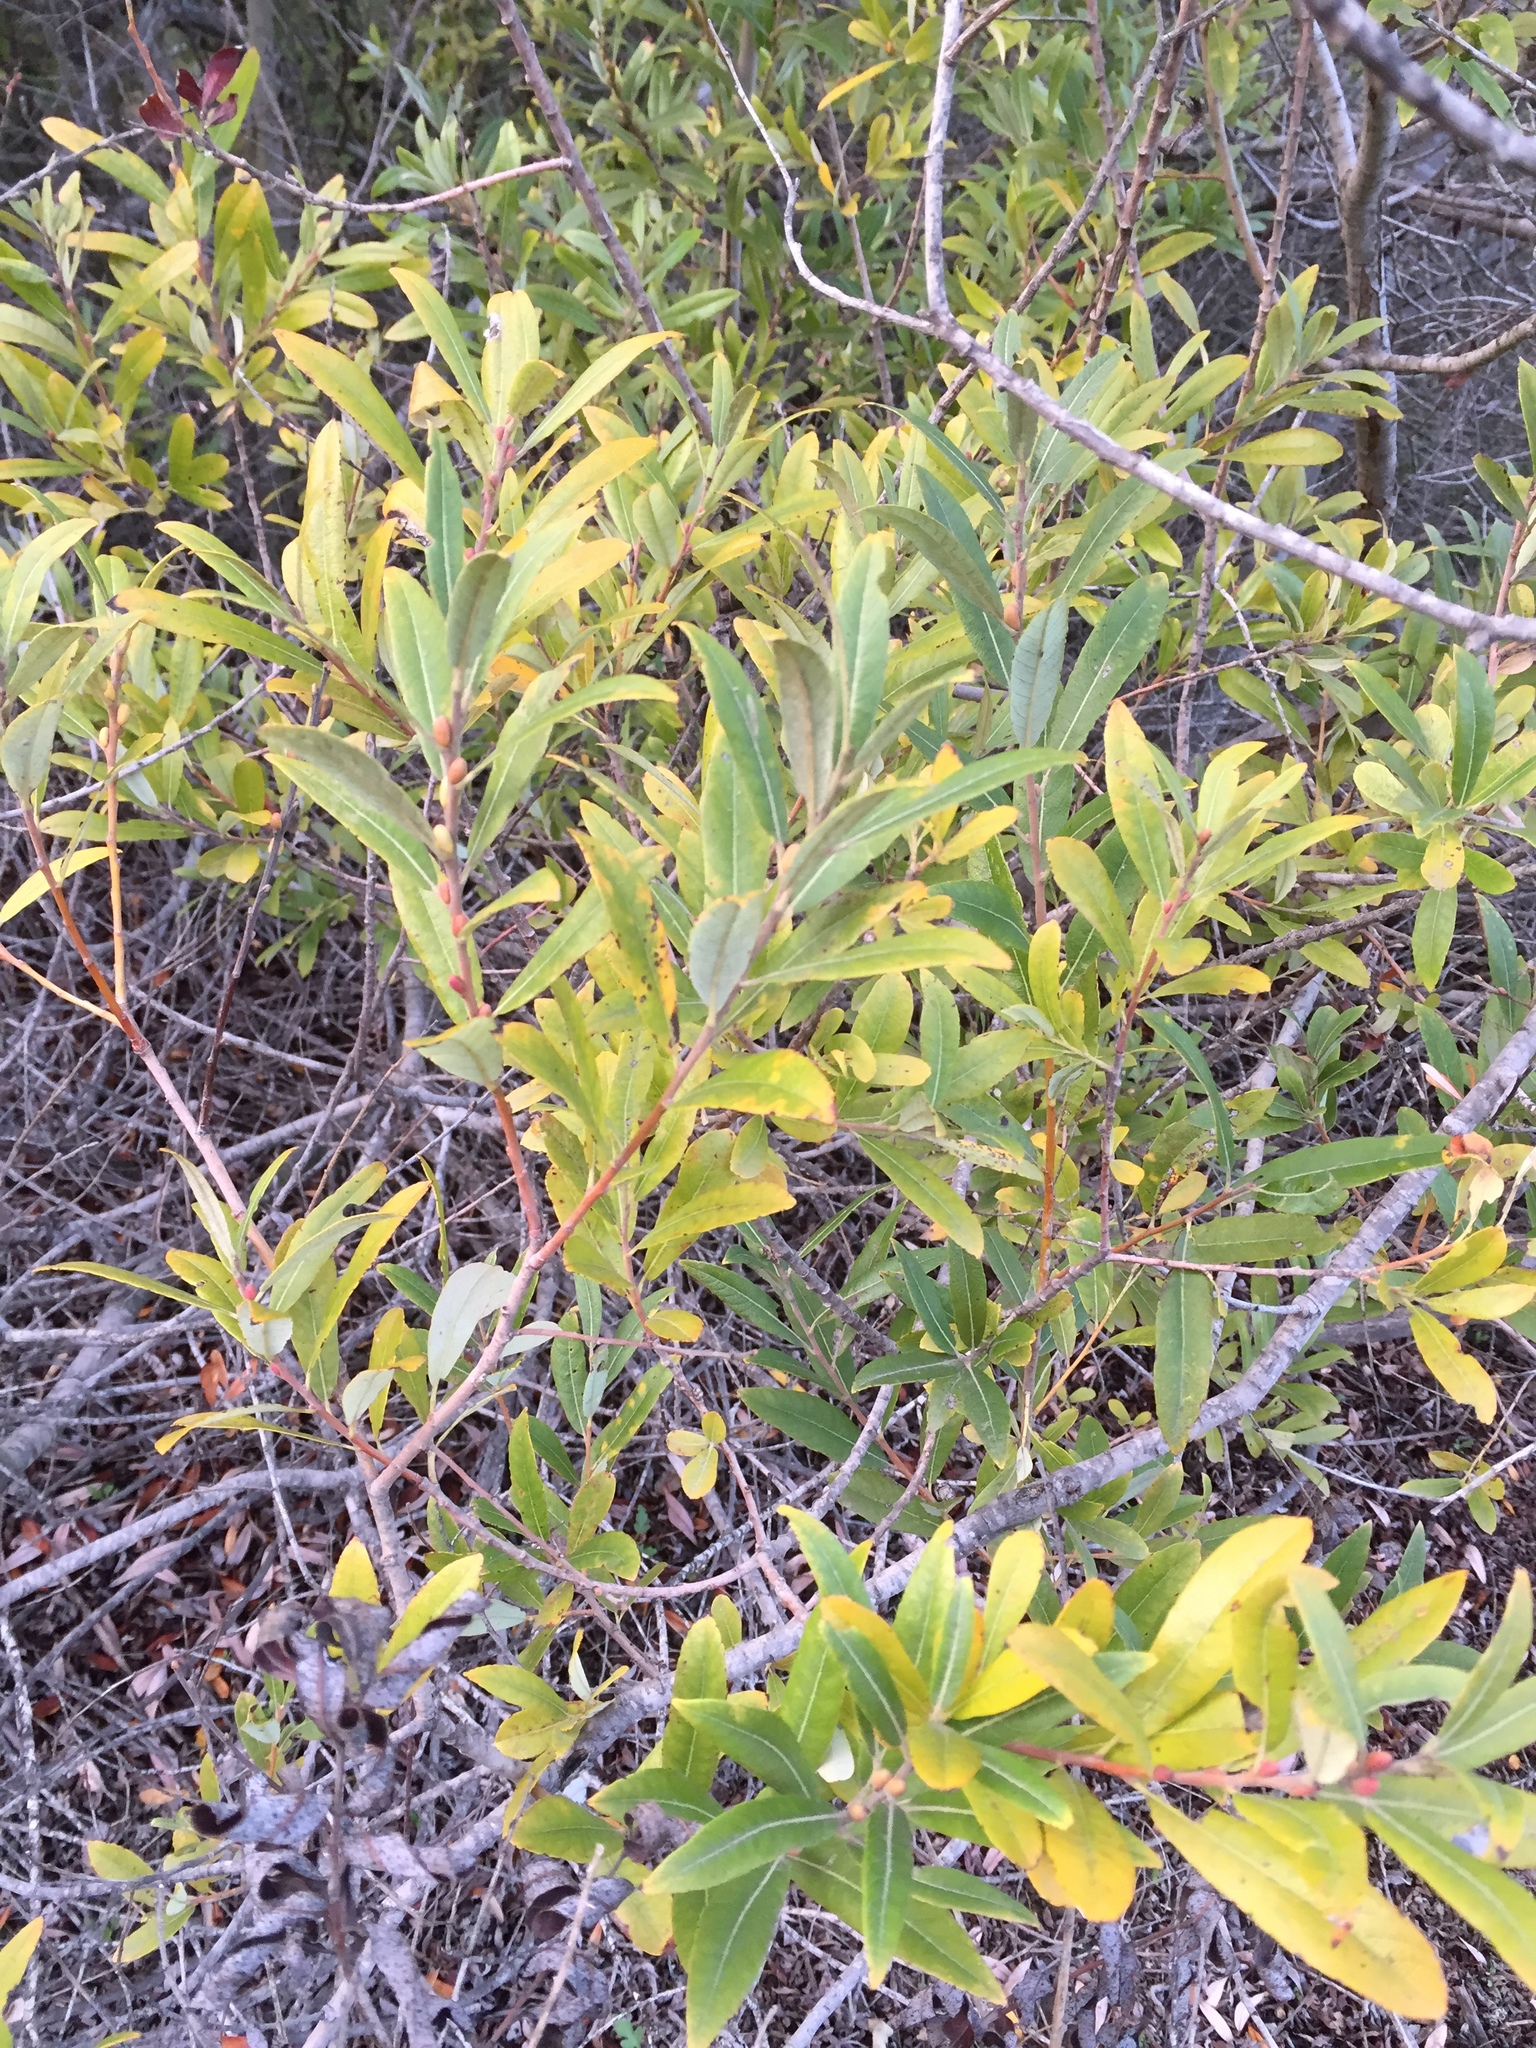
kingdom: Plantae
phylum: Tracheophyta
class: Magnoliopsida
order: Malpighiales
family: Salicaceae
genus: Salix
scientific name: Salix lasiolepis
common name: Arroyo willow
